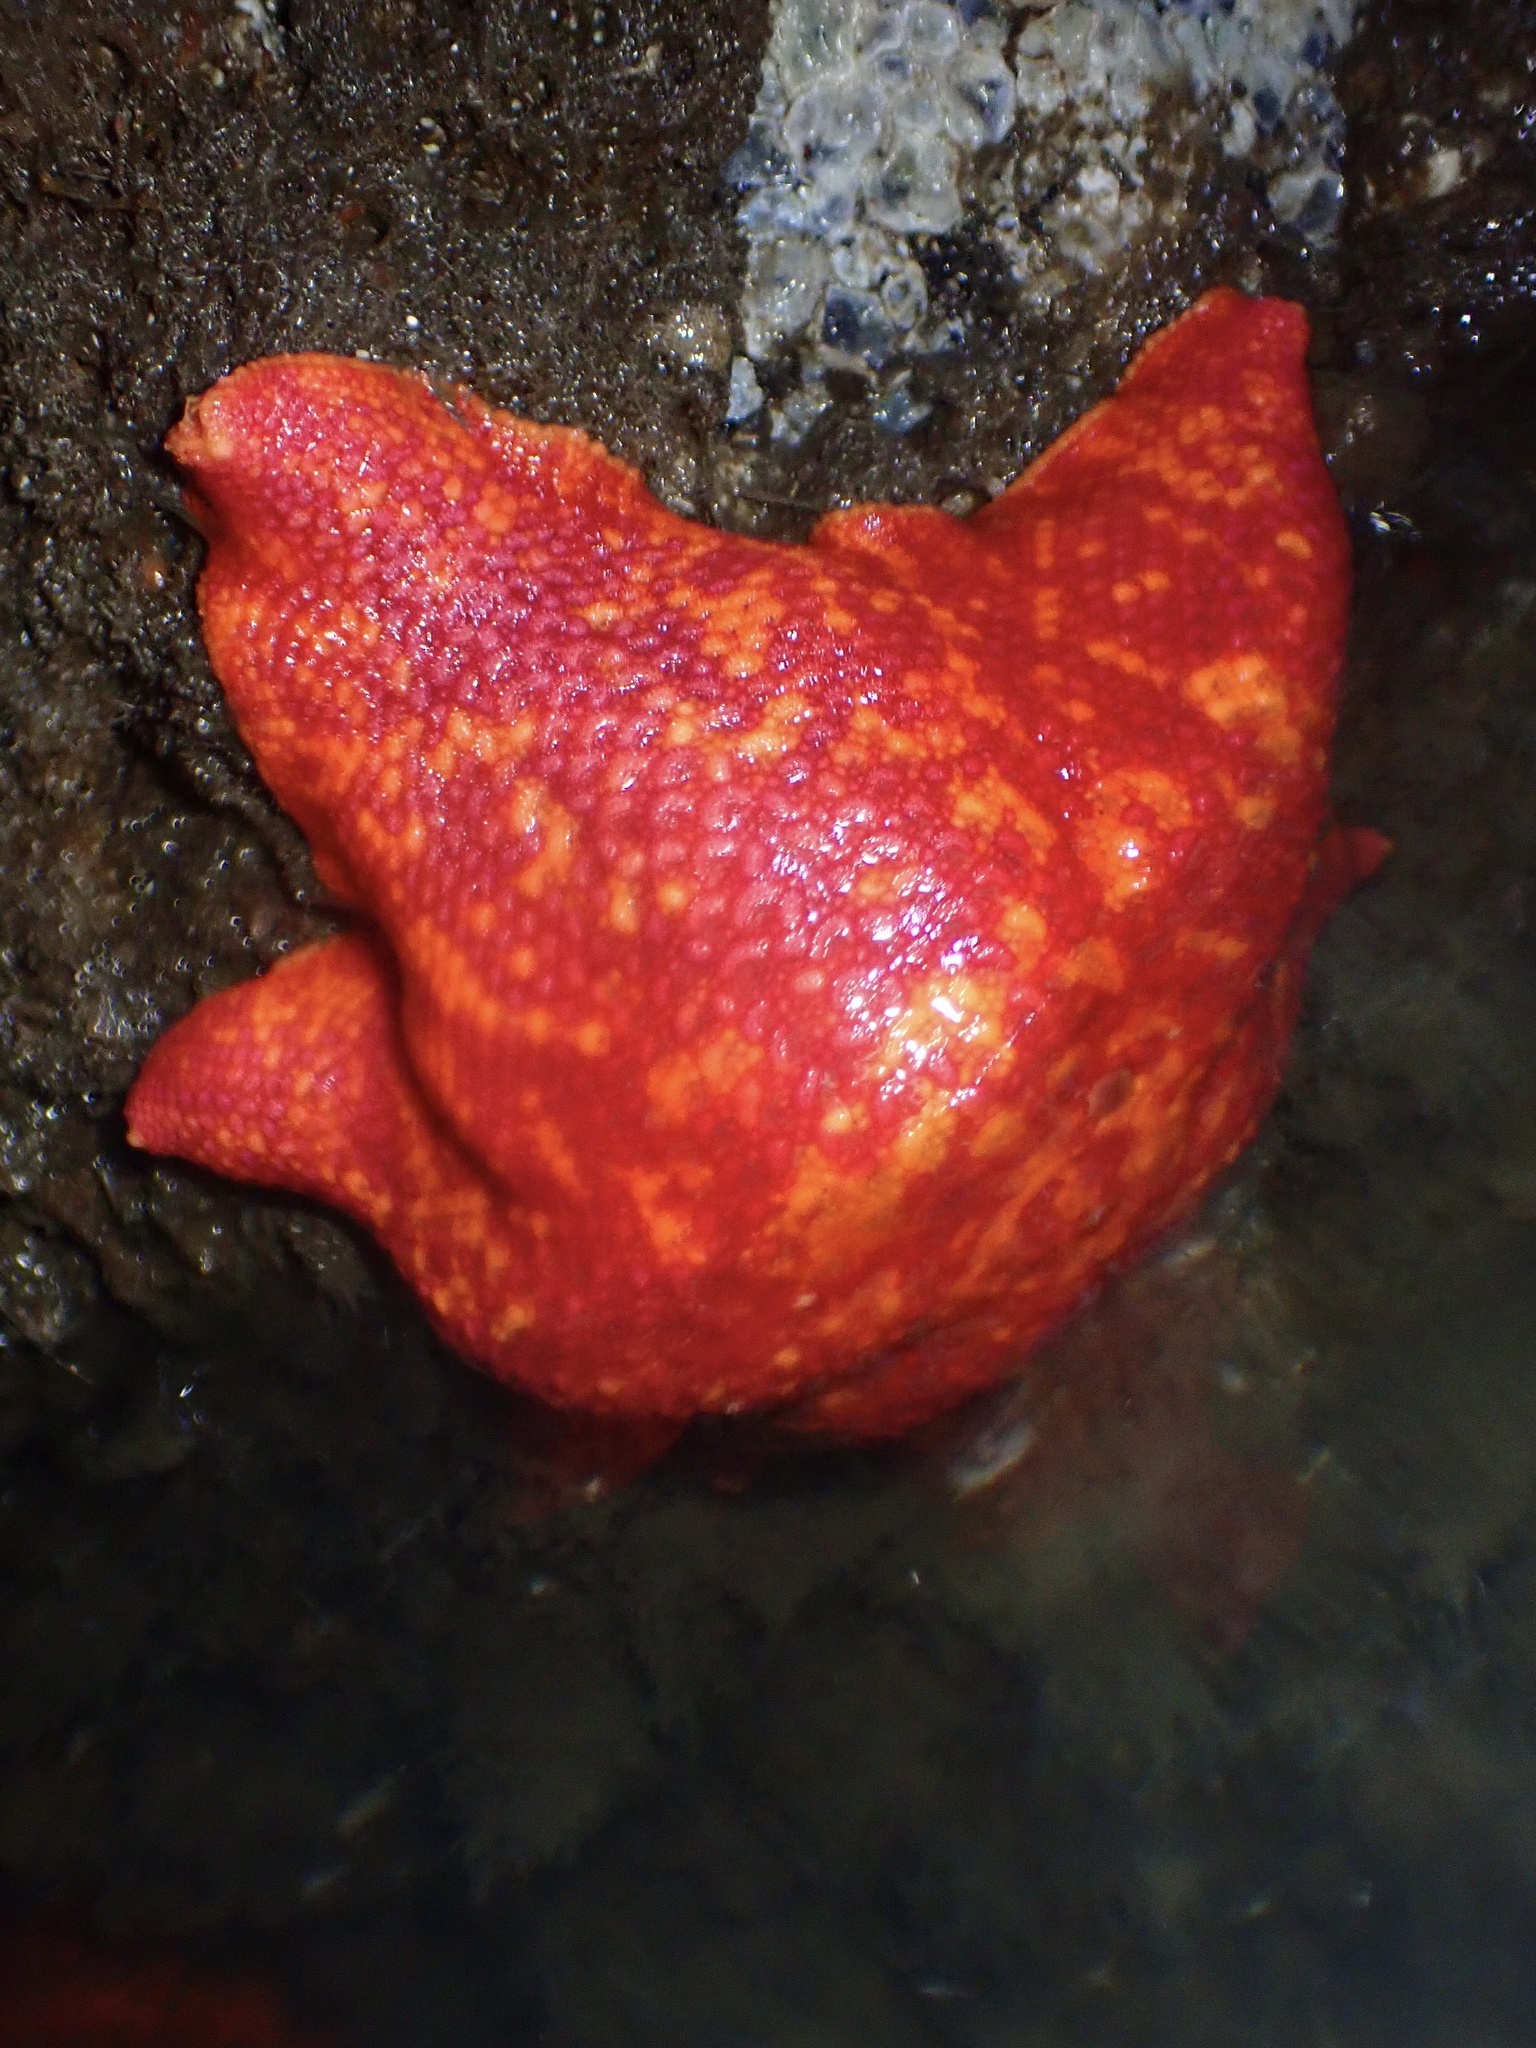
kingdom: Animalia
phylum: Echinodermata
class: Asteroidea
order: Valvatida
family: Asterinidae
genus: Patiria
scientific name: Patiria miniata
